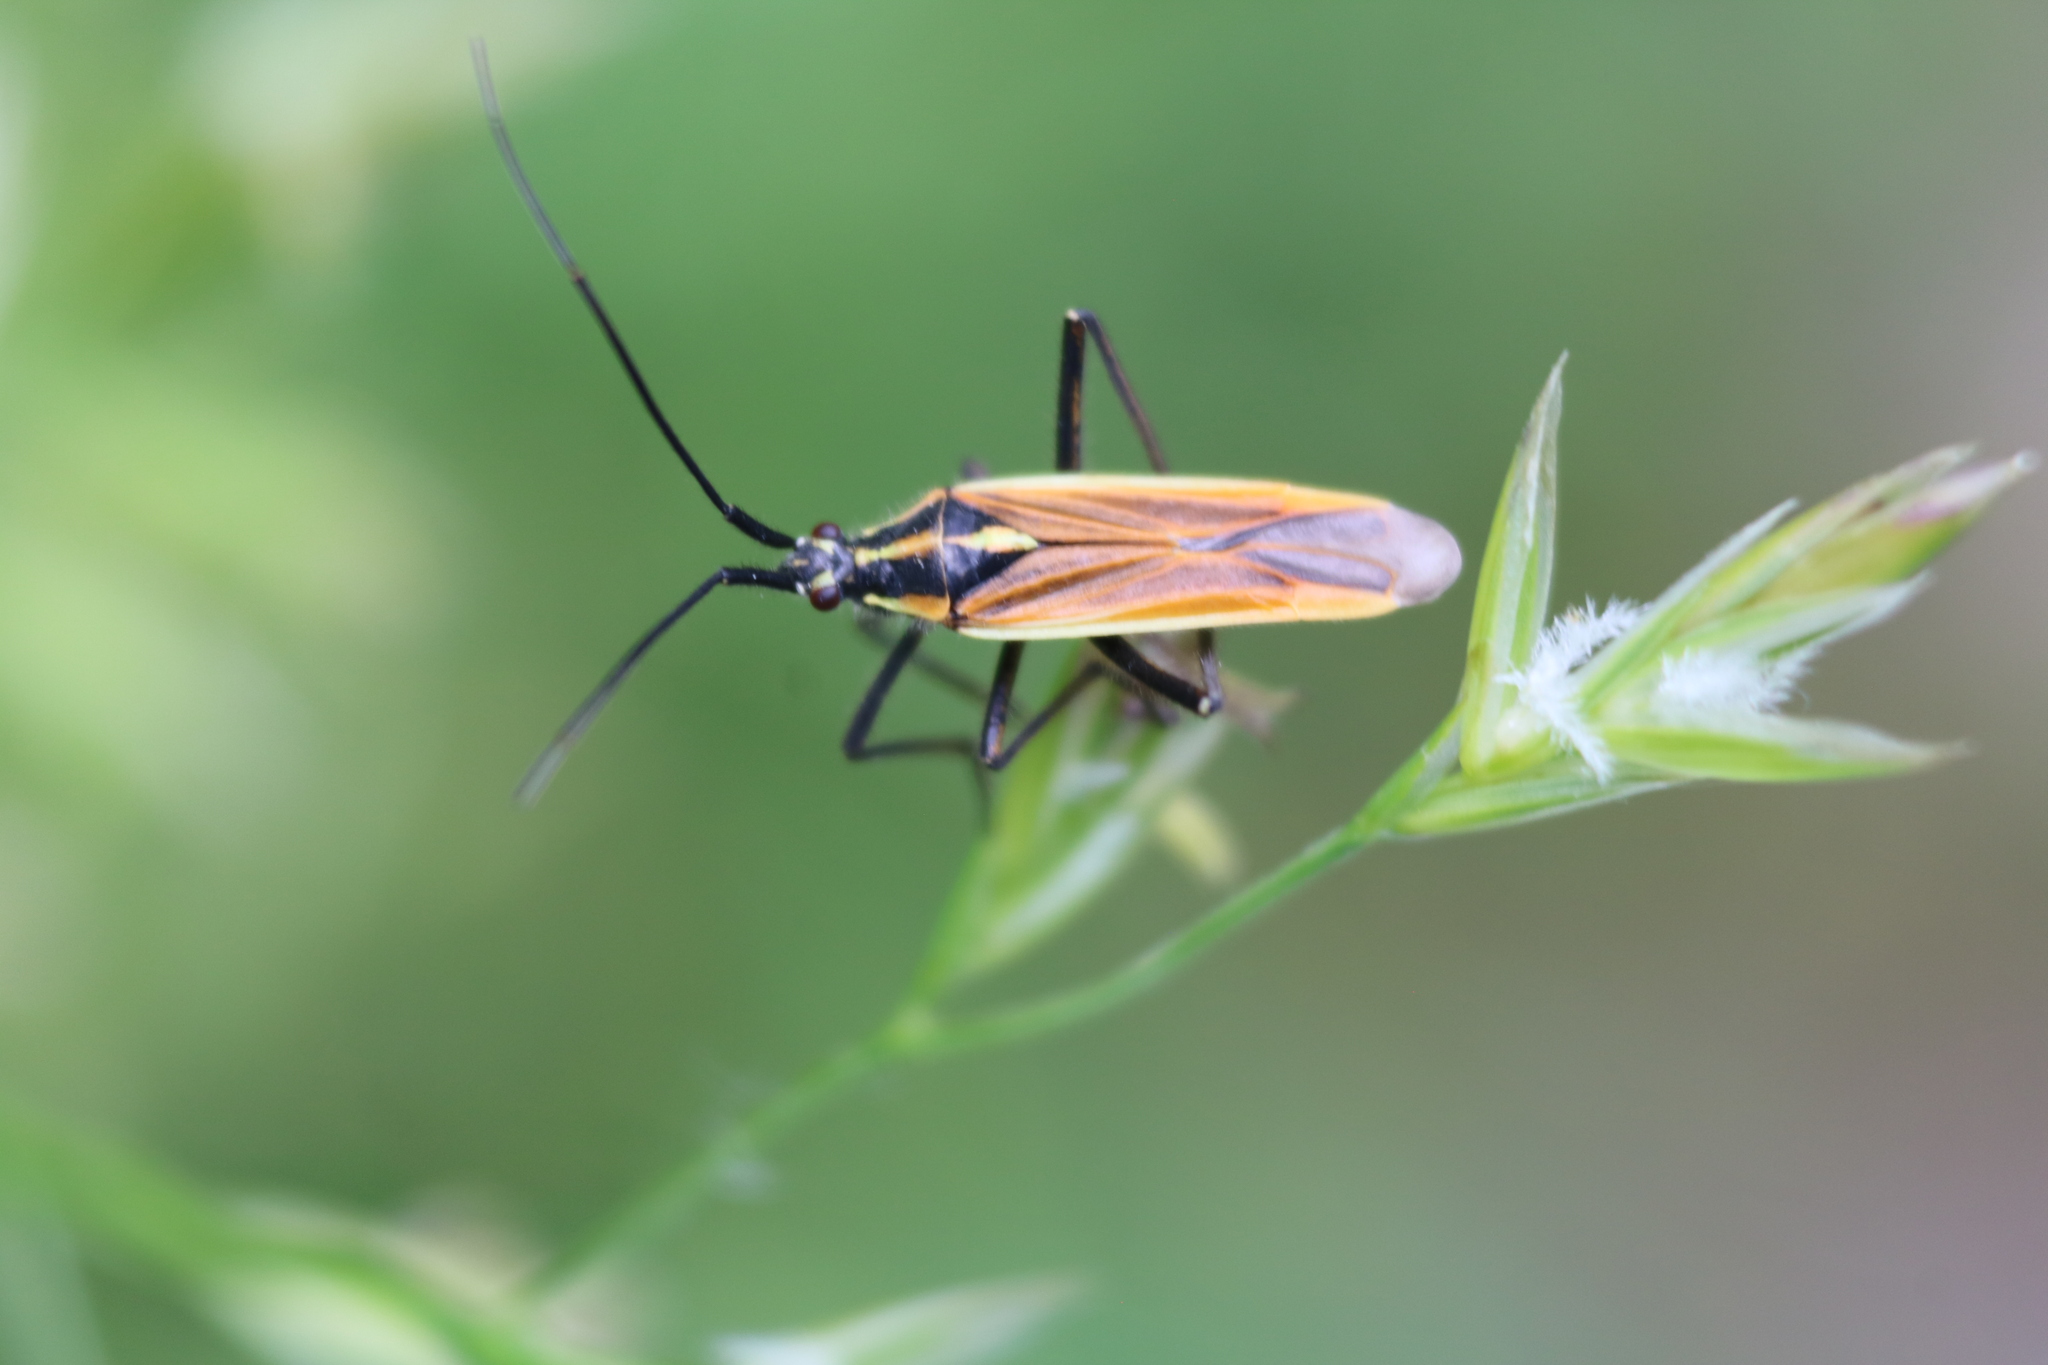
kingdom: Animalia
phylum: Arthropoda
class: Insecta
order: Hemiptera
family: Miridae
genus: Leptopterna
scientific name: Leptopterna dolabrata
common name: Meadow plant bug
